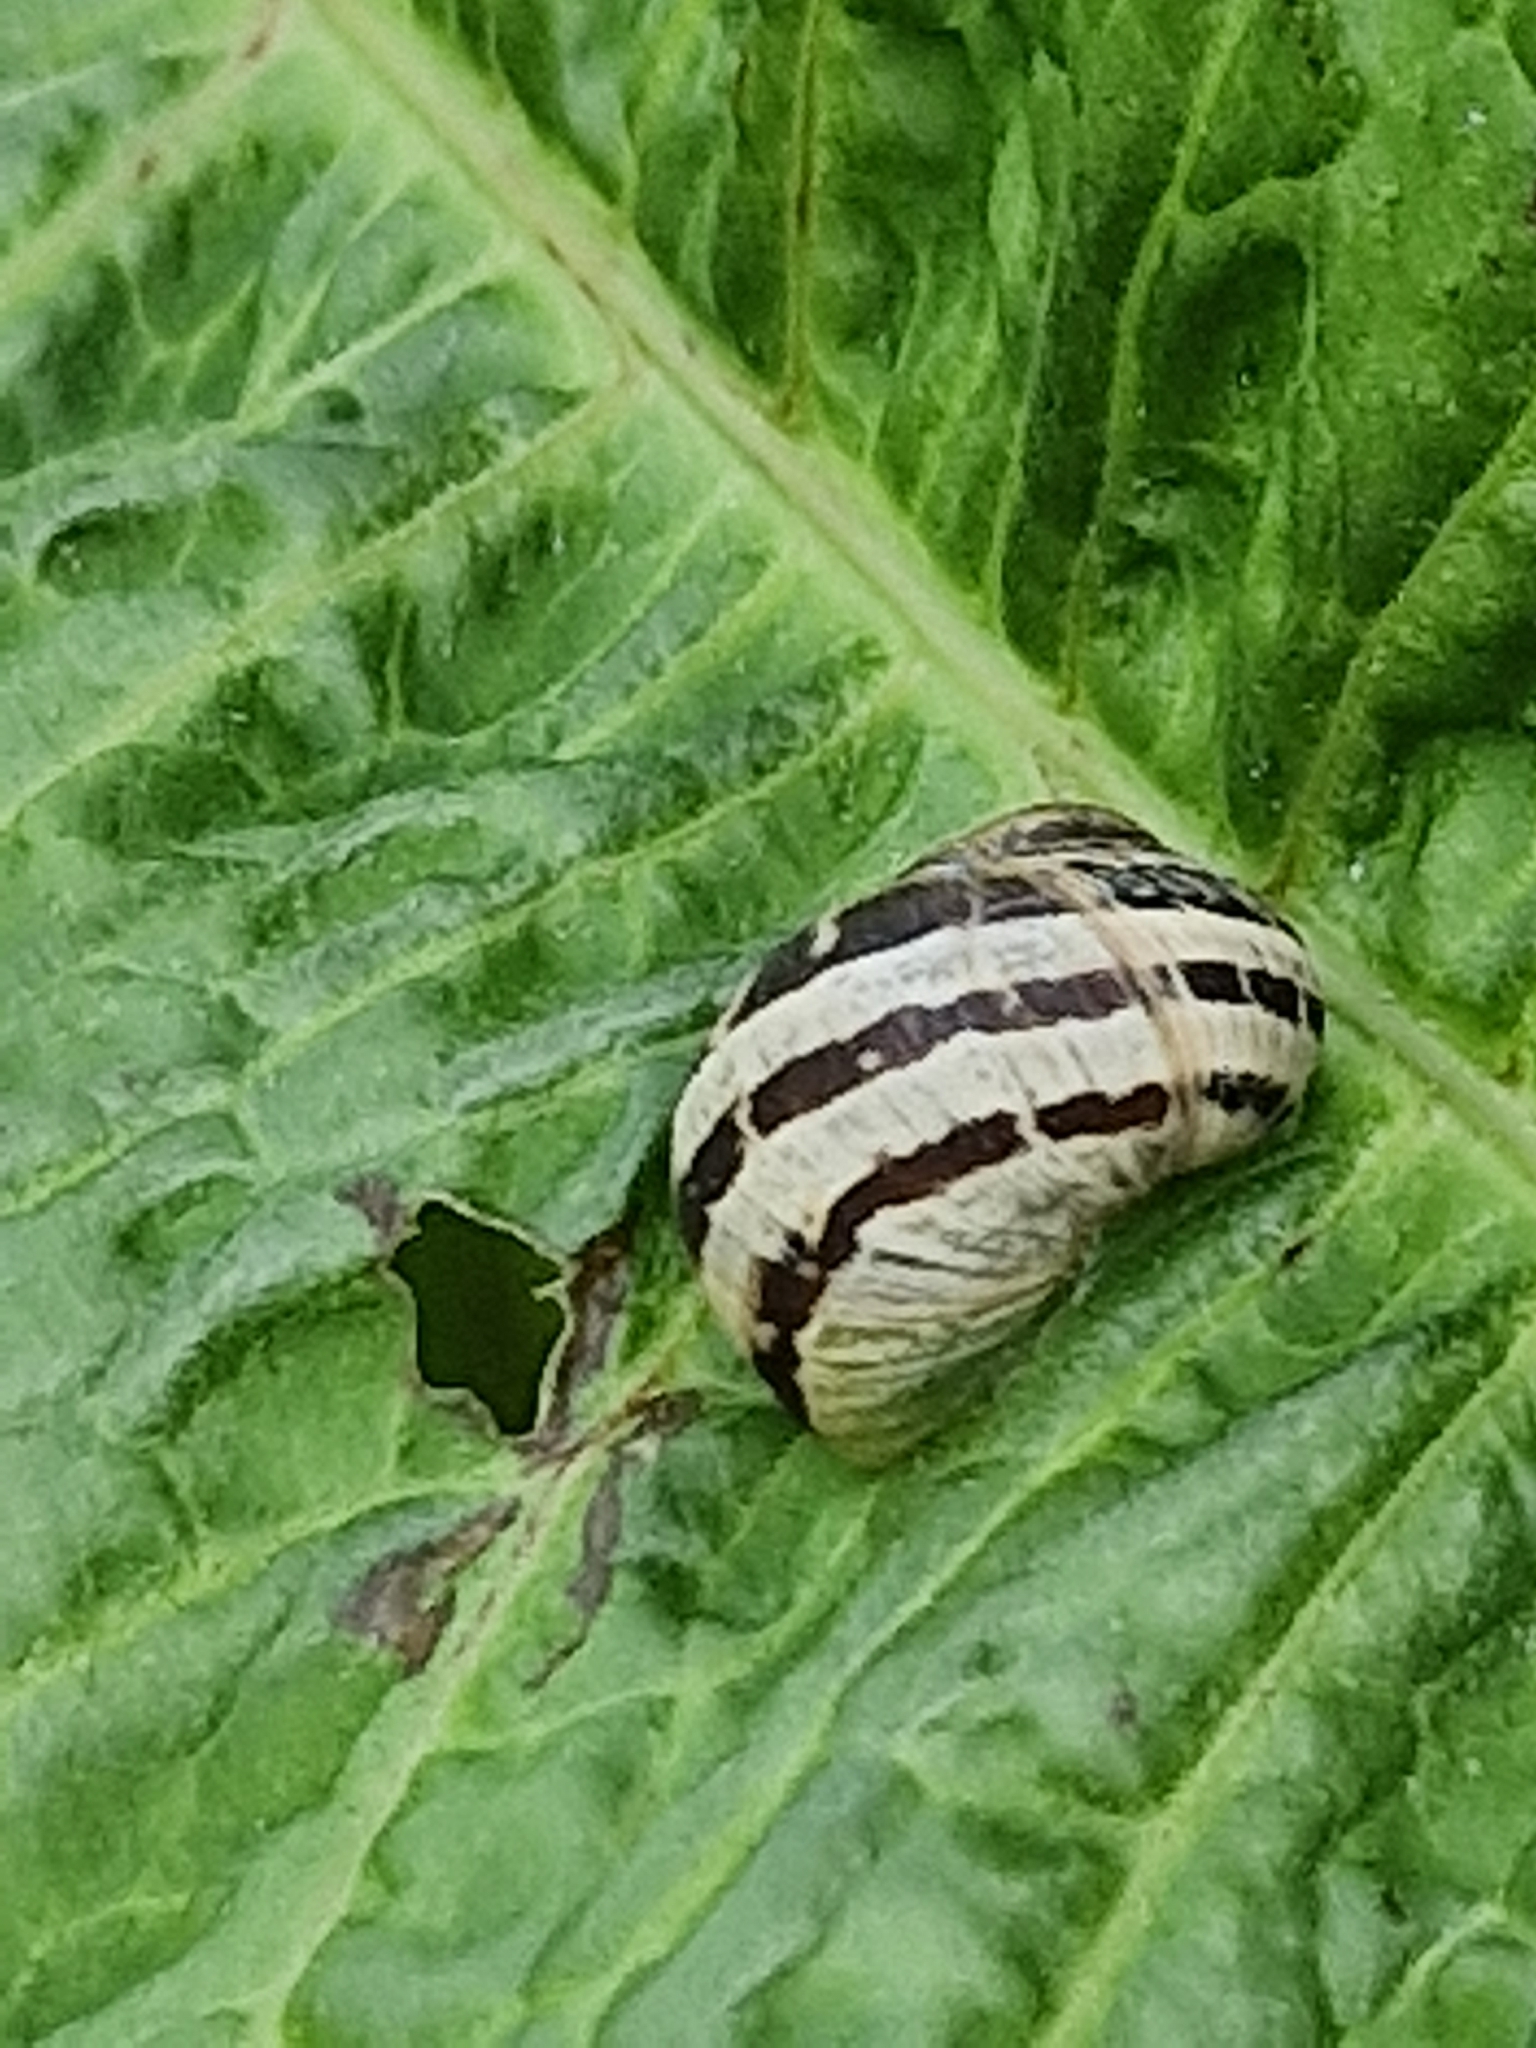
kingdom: Animalia
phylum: Mollusca
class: Gastropoda
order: Stylommatophora
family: Helicidae
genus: Cornu
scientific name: Cornu aspersum
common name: Brown garden snail
